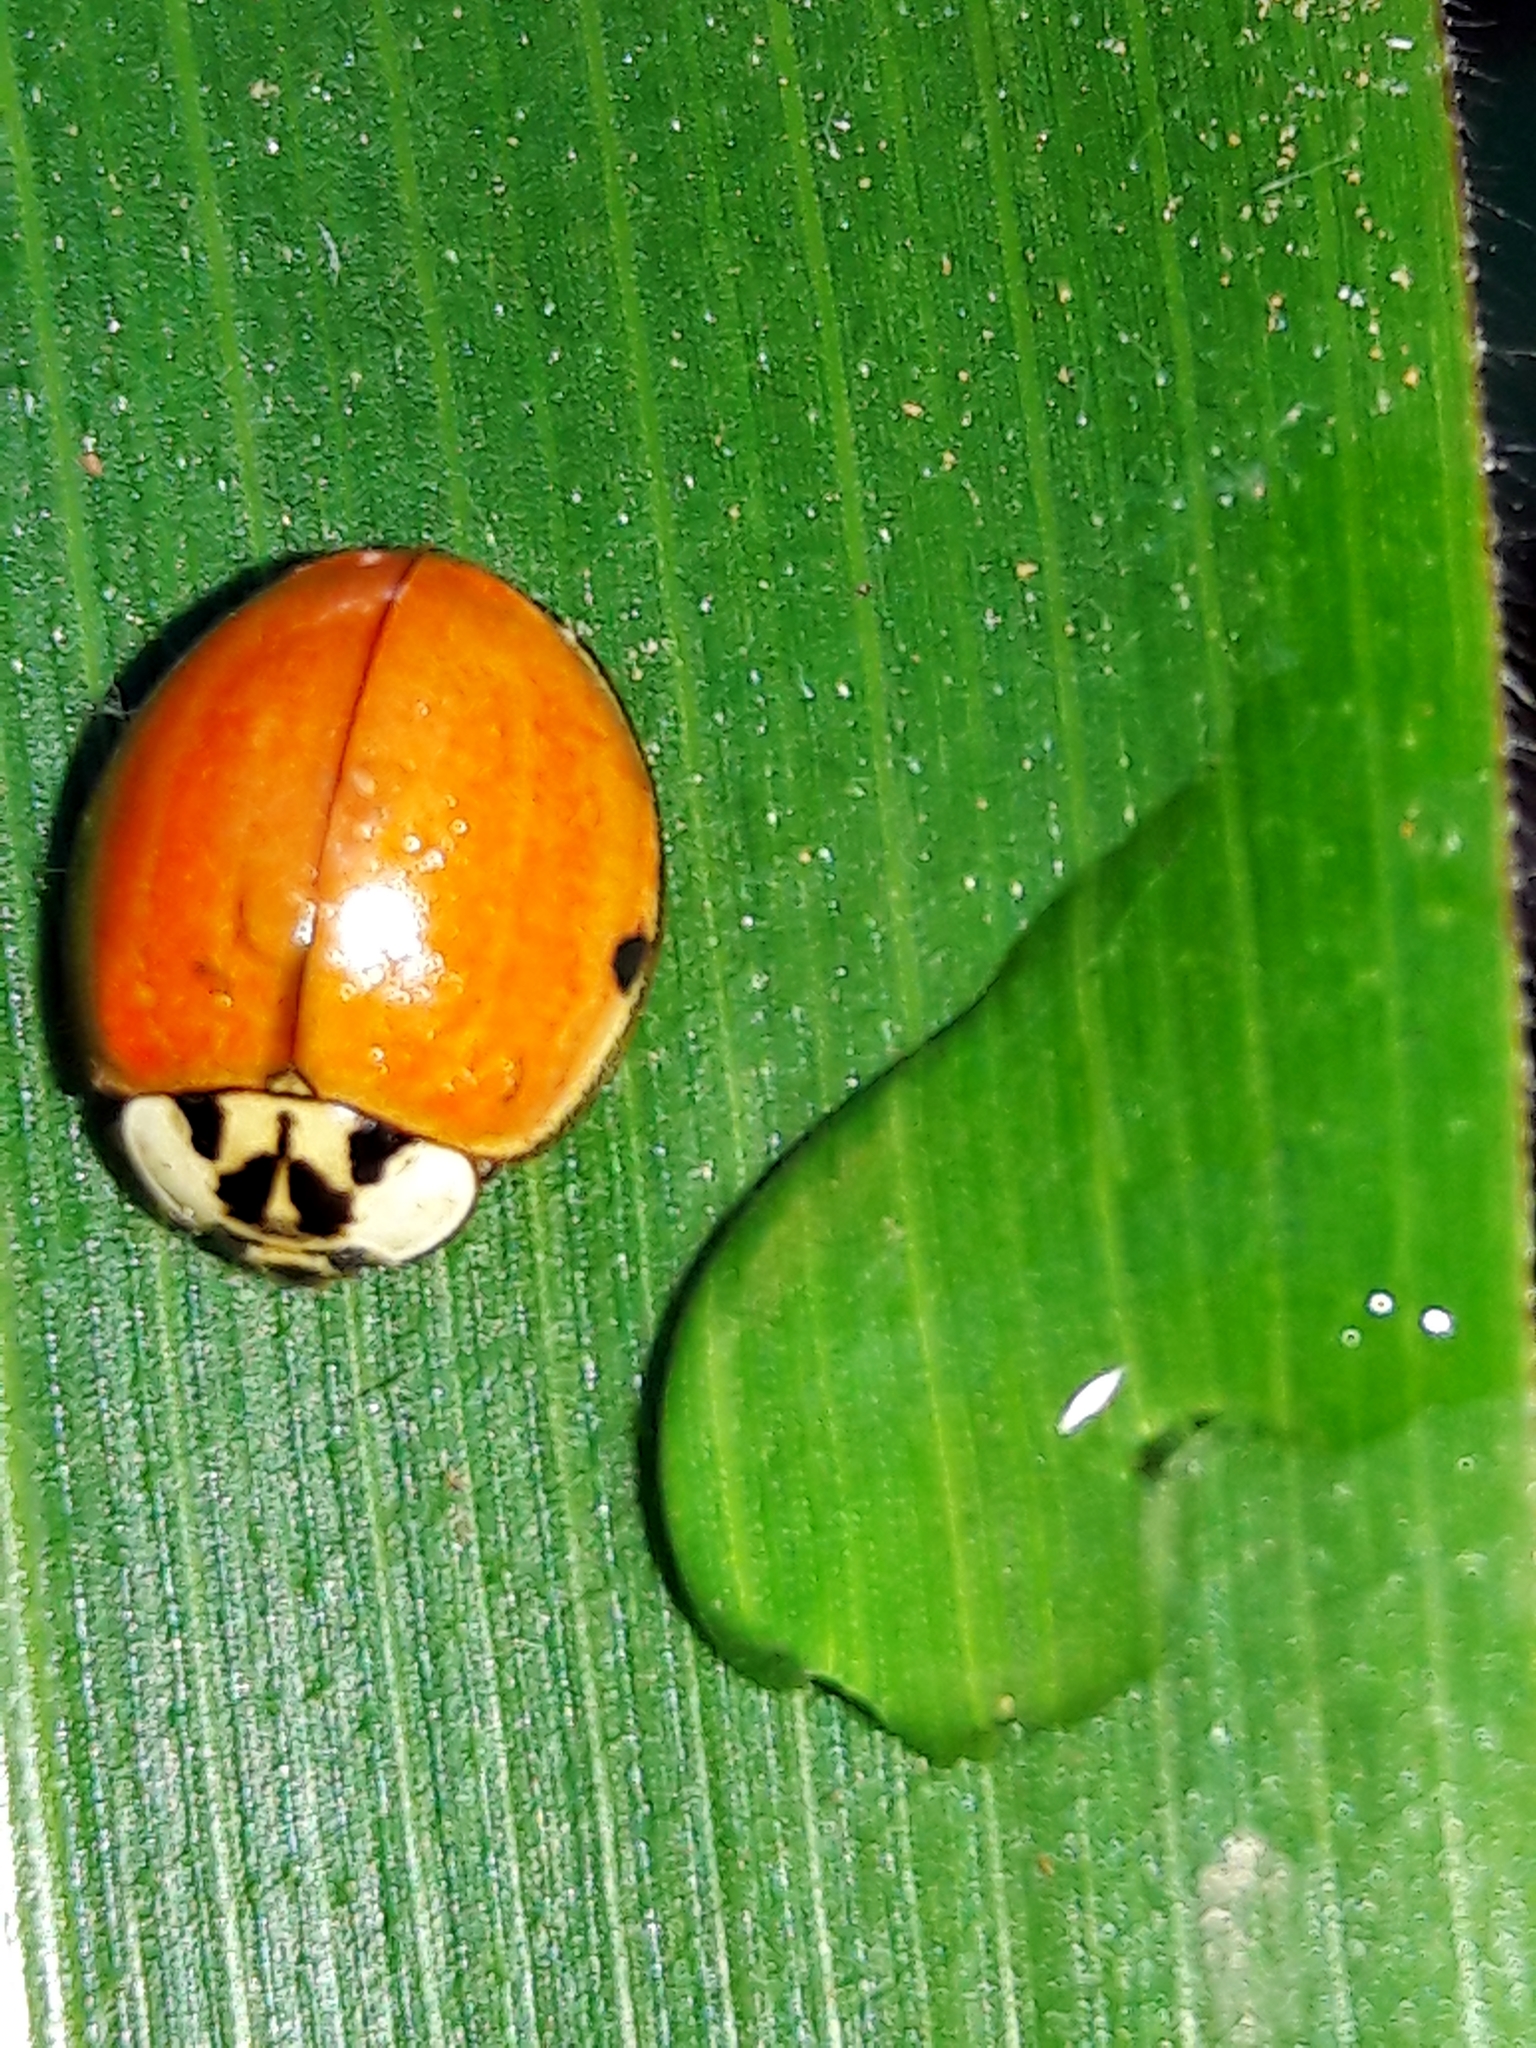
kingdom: Animalia
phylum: Arthropoda
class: Insecta
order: Coleoptera
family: Coccinellidae
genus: Harmonia
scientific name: Harmonia axyridis
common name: Harlequin ladybird
